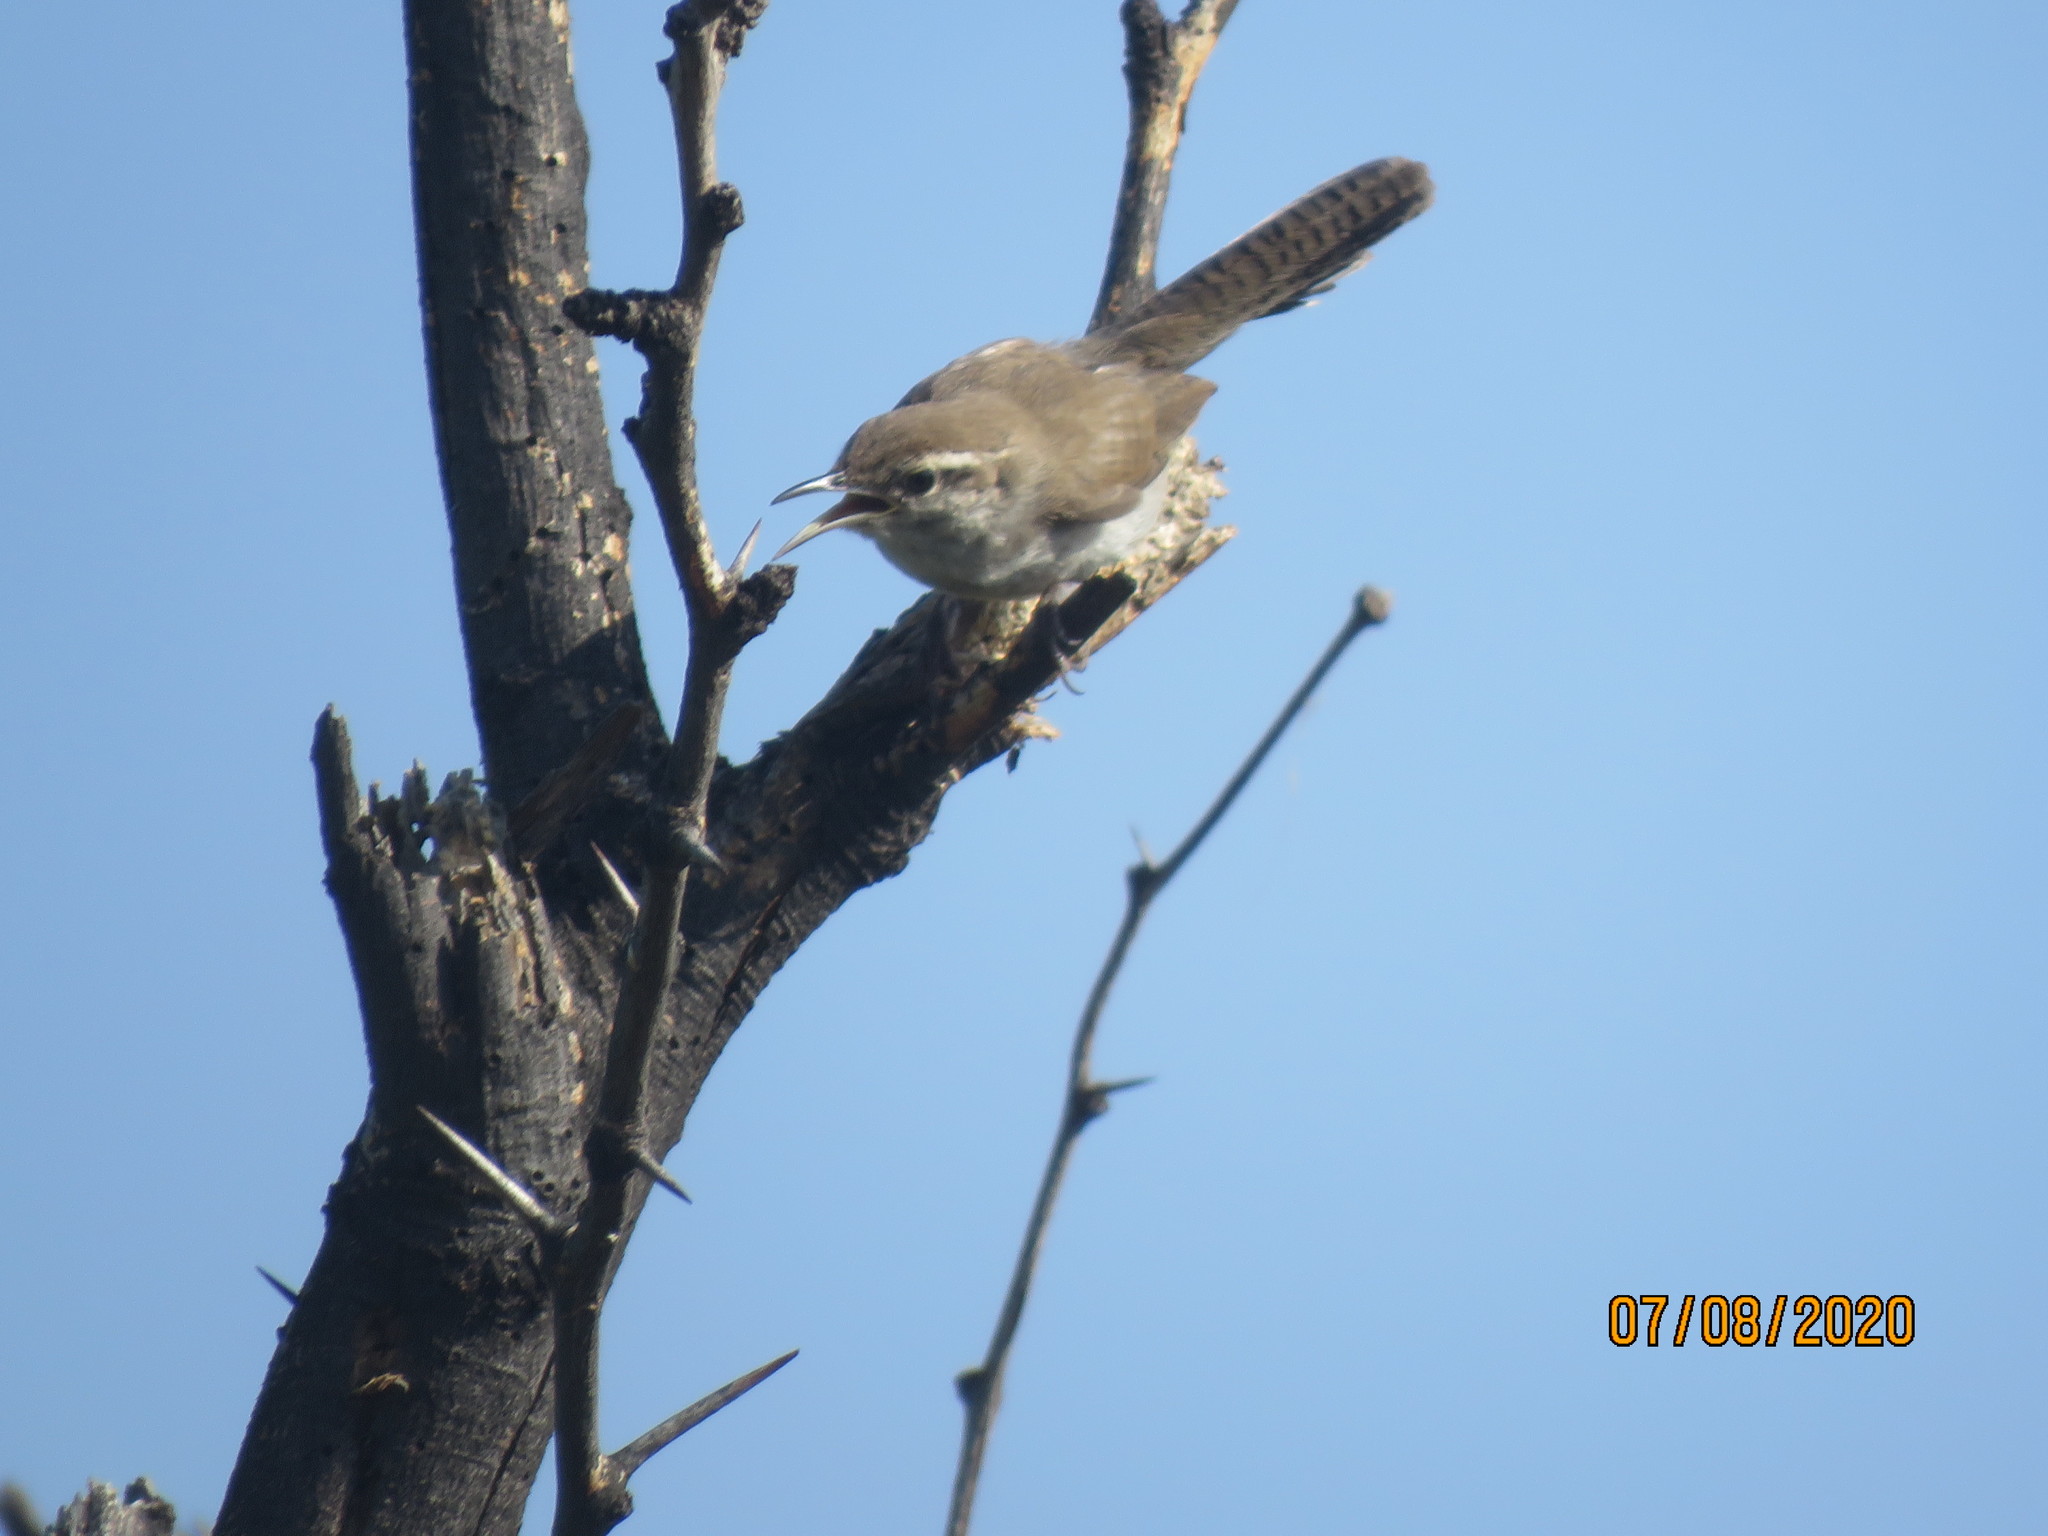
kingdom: Animalia
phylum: Chordata
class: Aves
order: Passeriformes
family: Troglodytidae
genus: Thryomanes
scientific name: Thryomanes bewickii
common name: Bewick's wren
